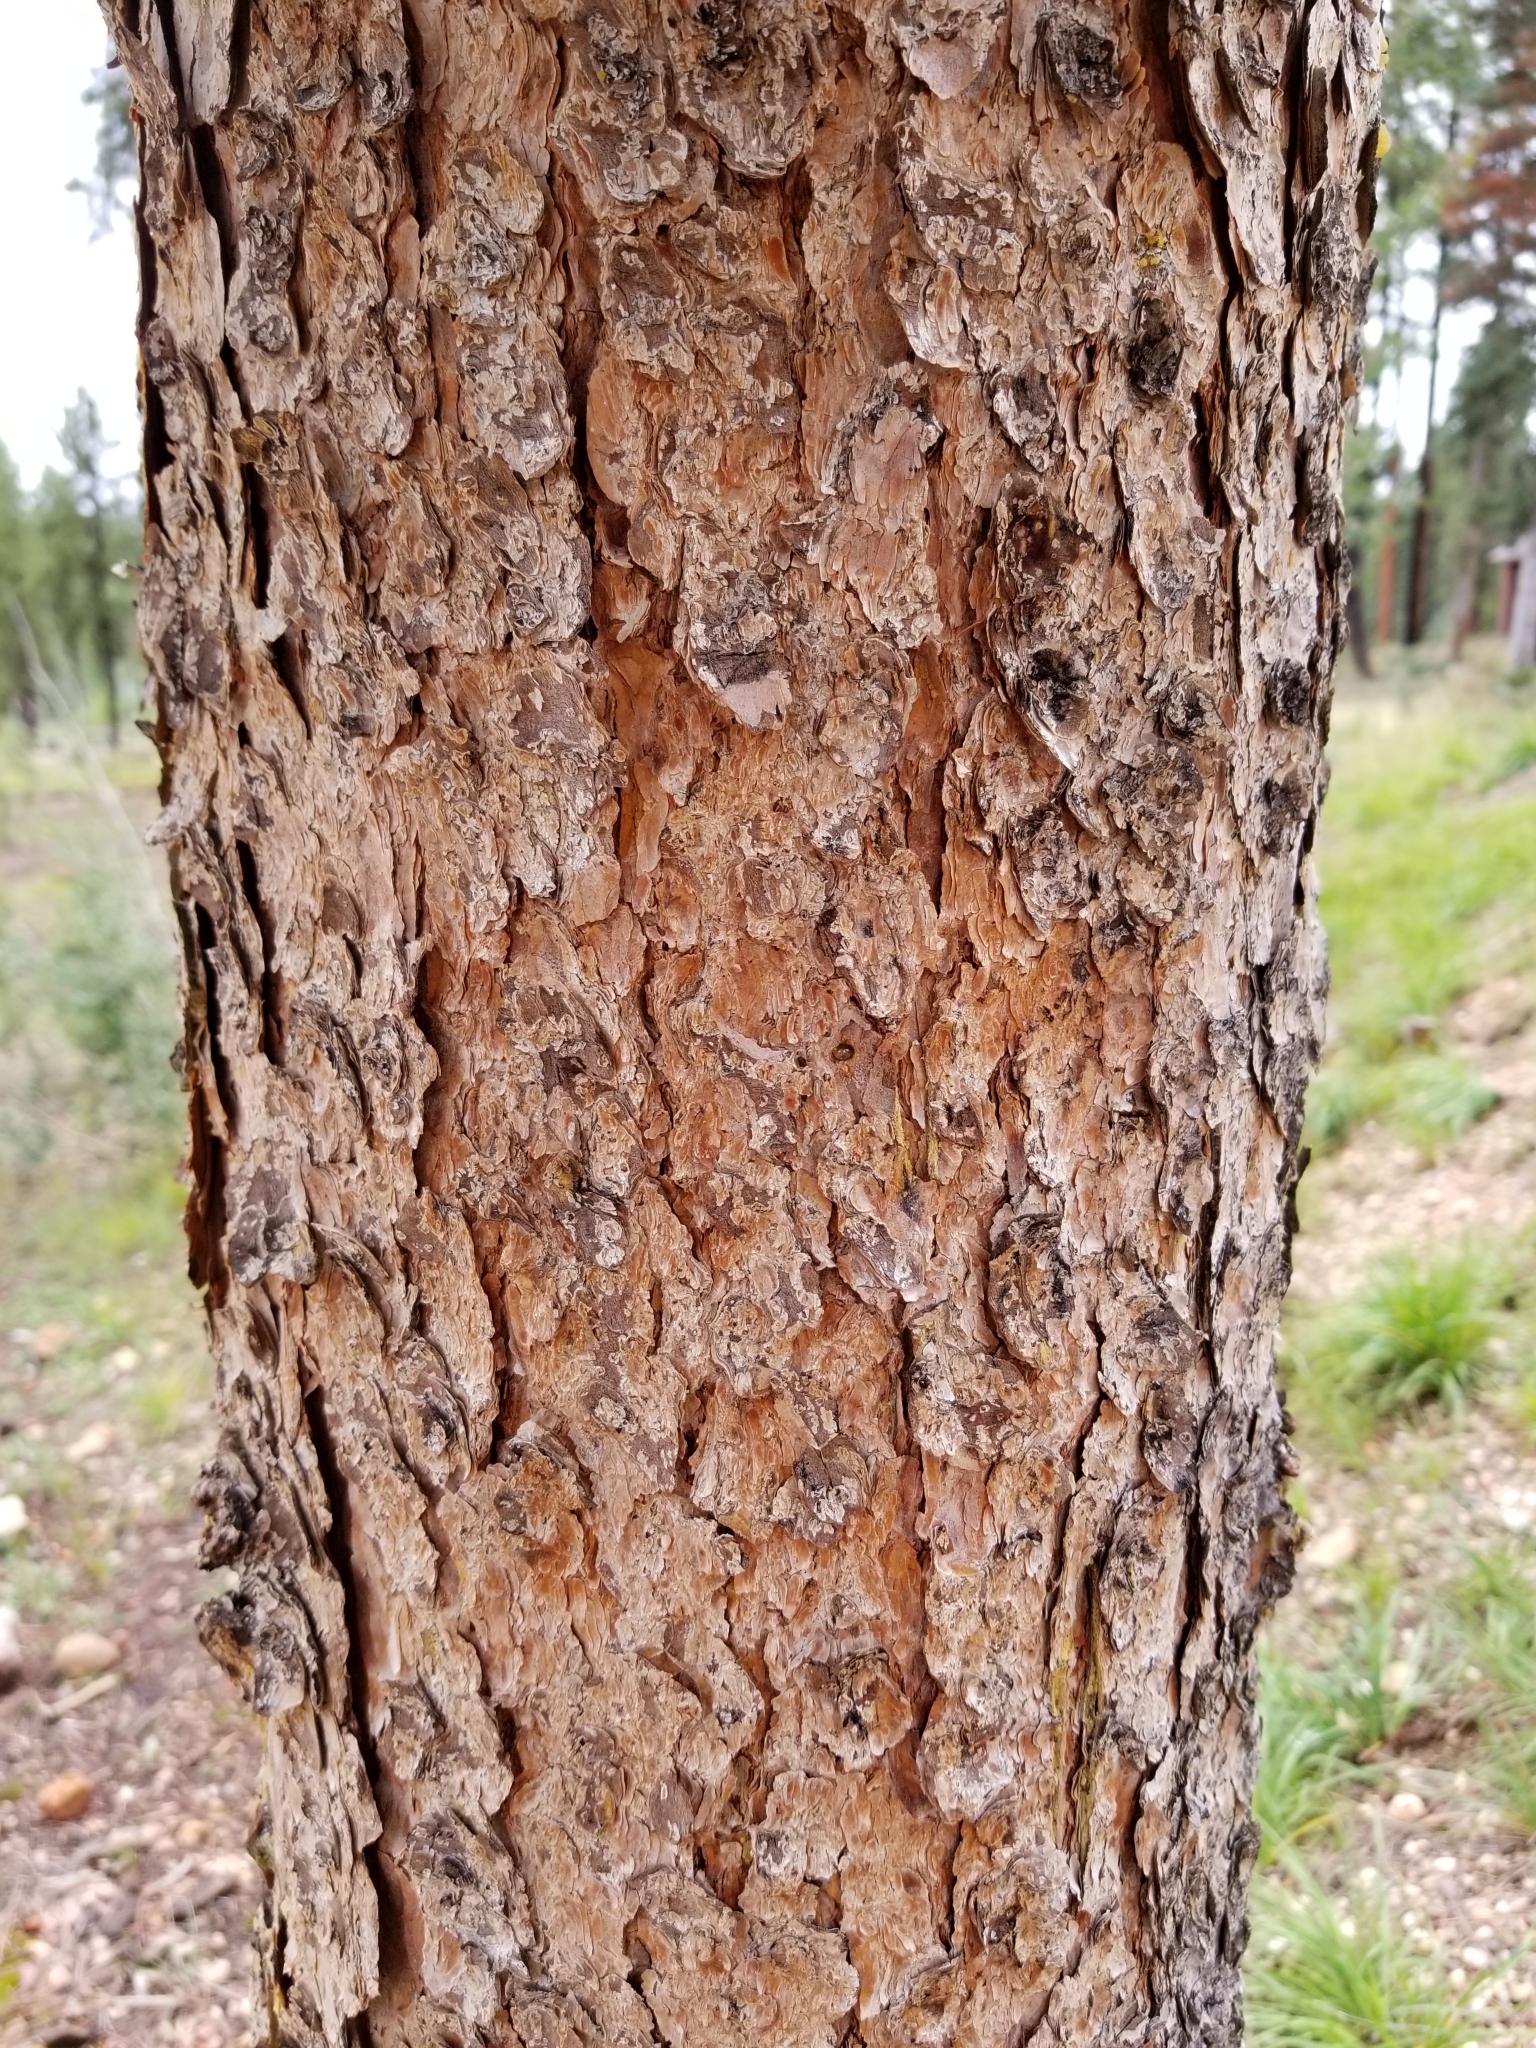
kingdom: Plantae
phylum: Tracheophyta
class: Pinopsida
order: Pinales
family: Pinaceae
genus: Picea
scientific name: Picea engelmannii
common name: Engelmann spruce
